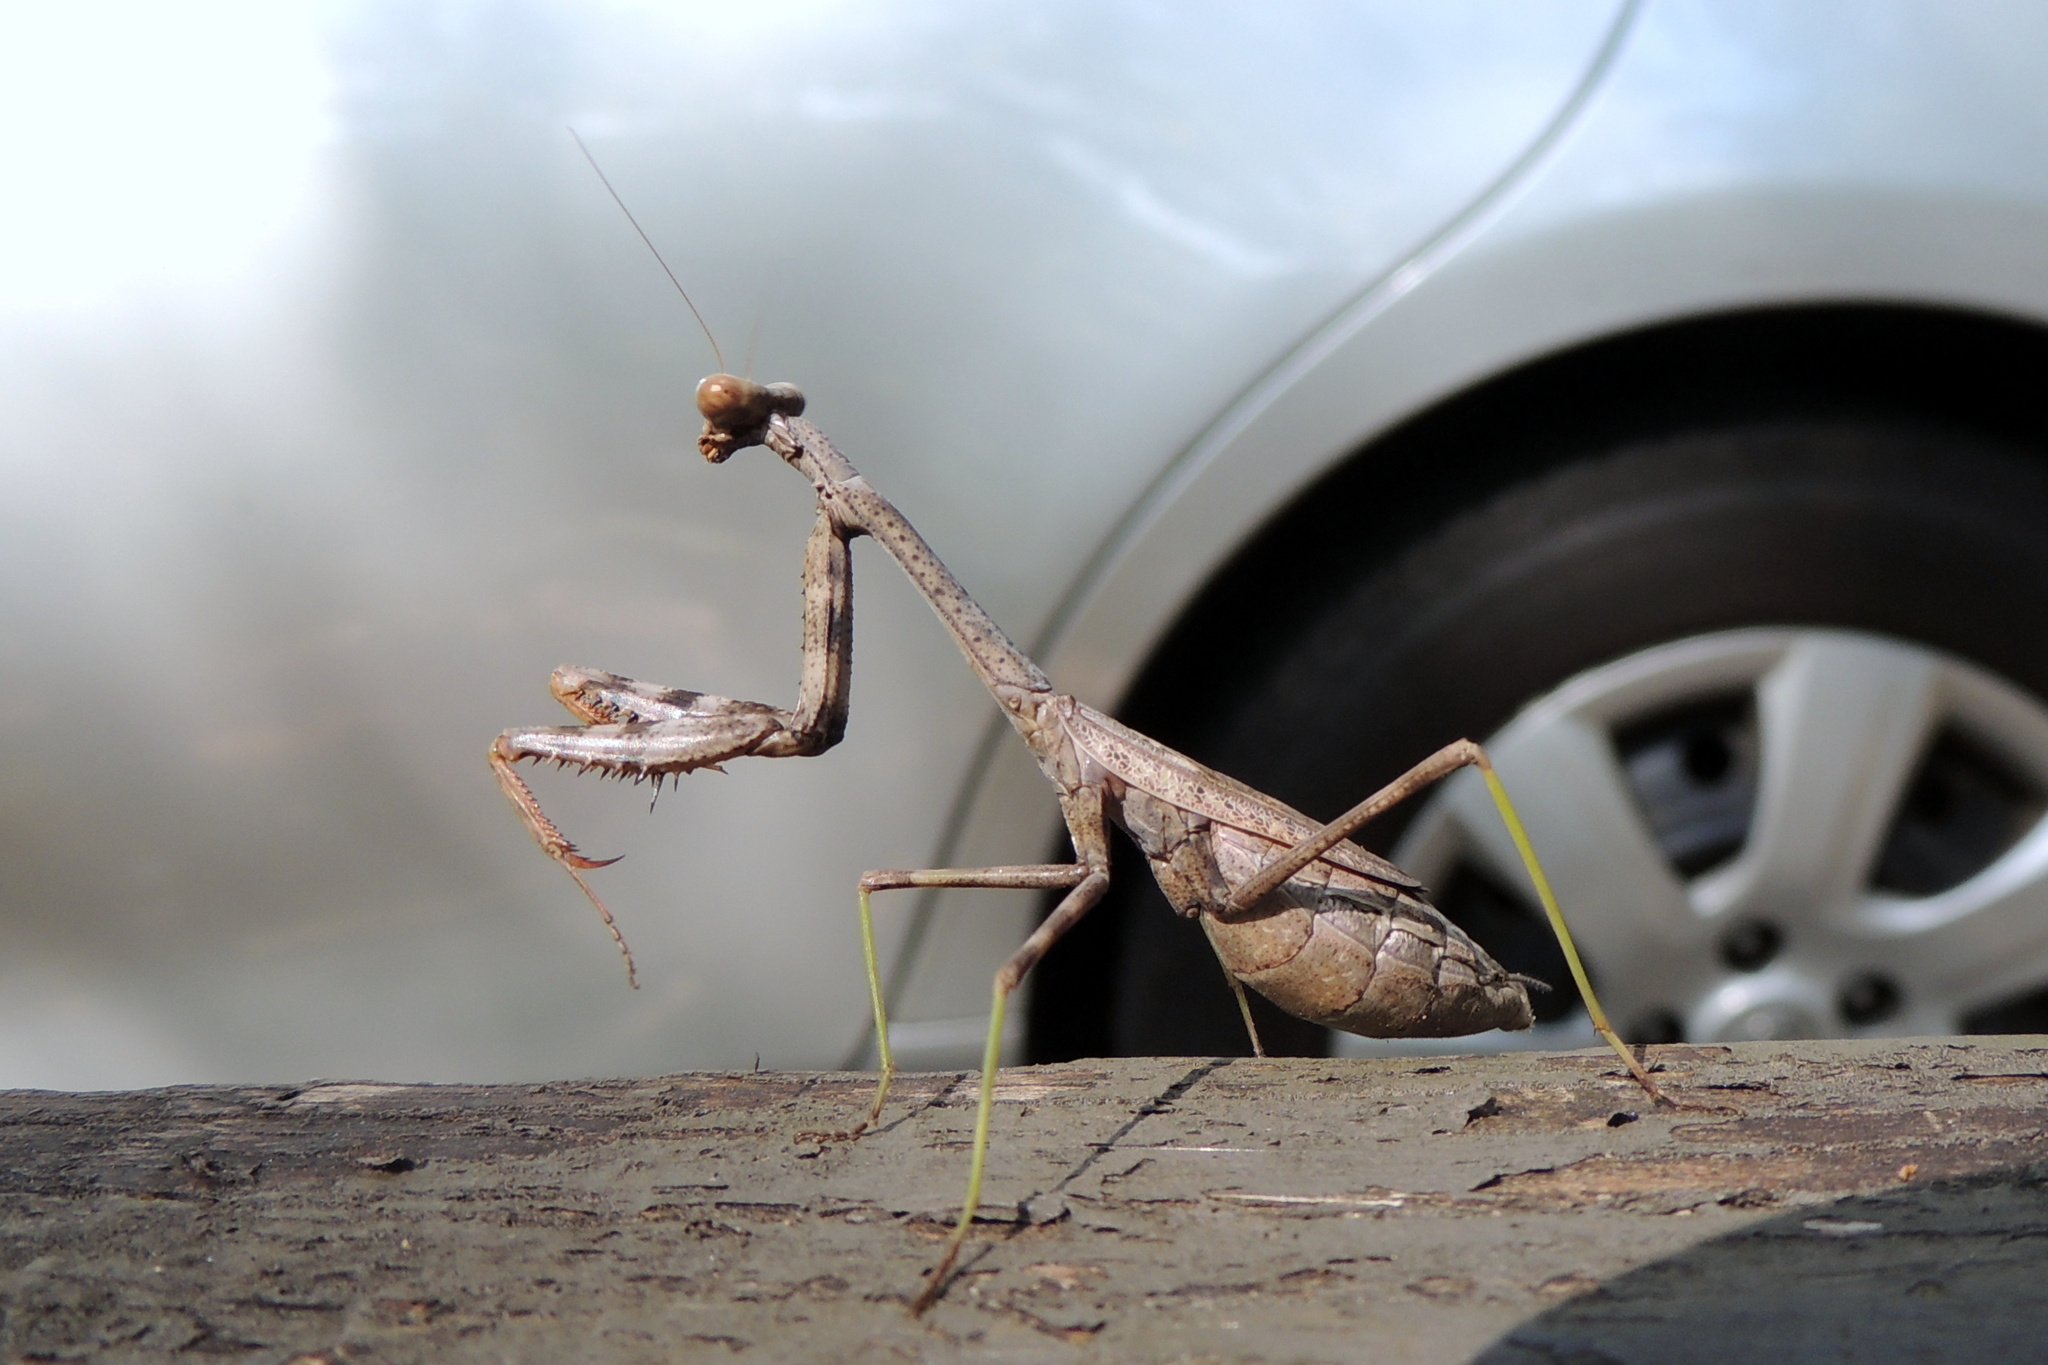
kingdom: Animalia
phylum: Arthropoda
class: Insecta
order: Mantodea
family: Mantidae
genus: Stagmomantis
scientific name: Stagmomantis carolina
